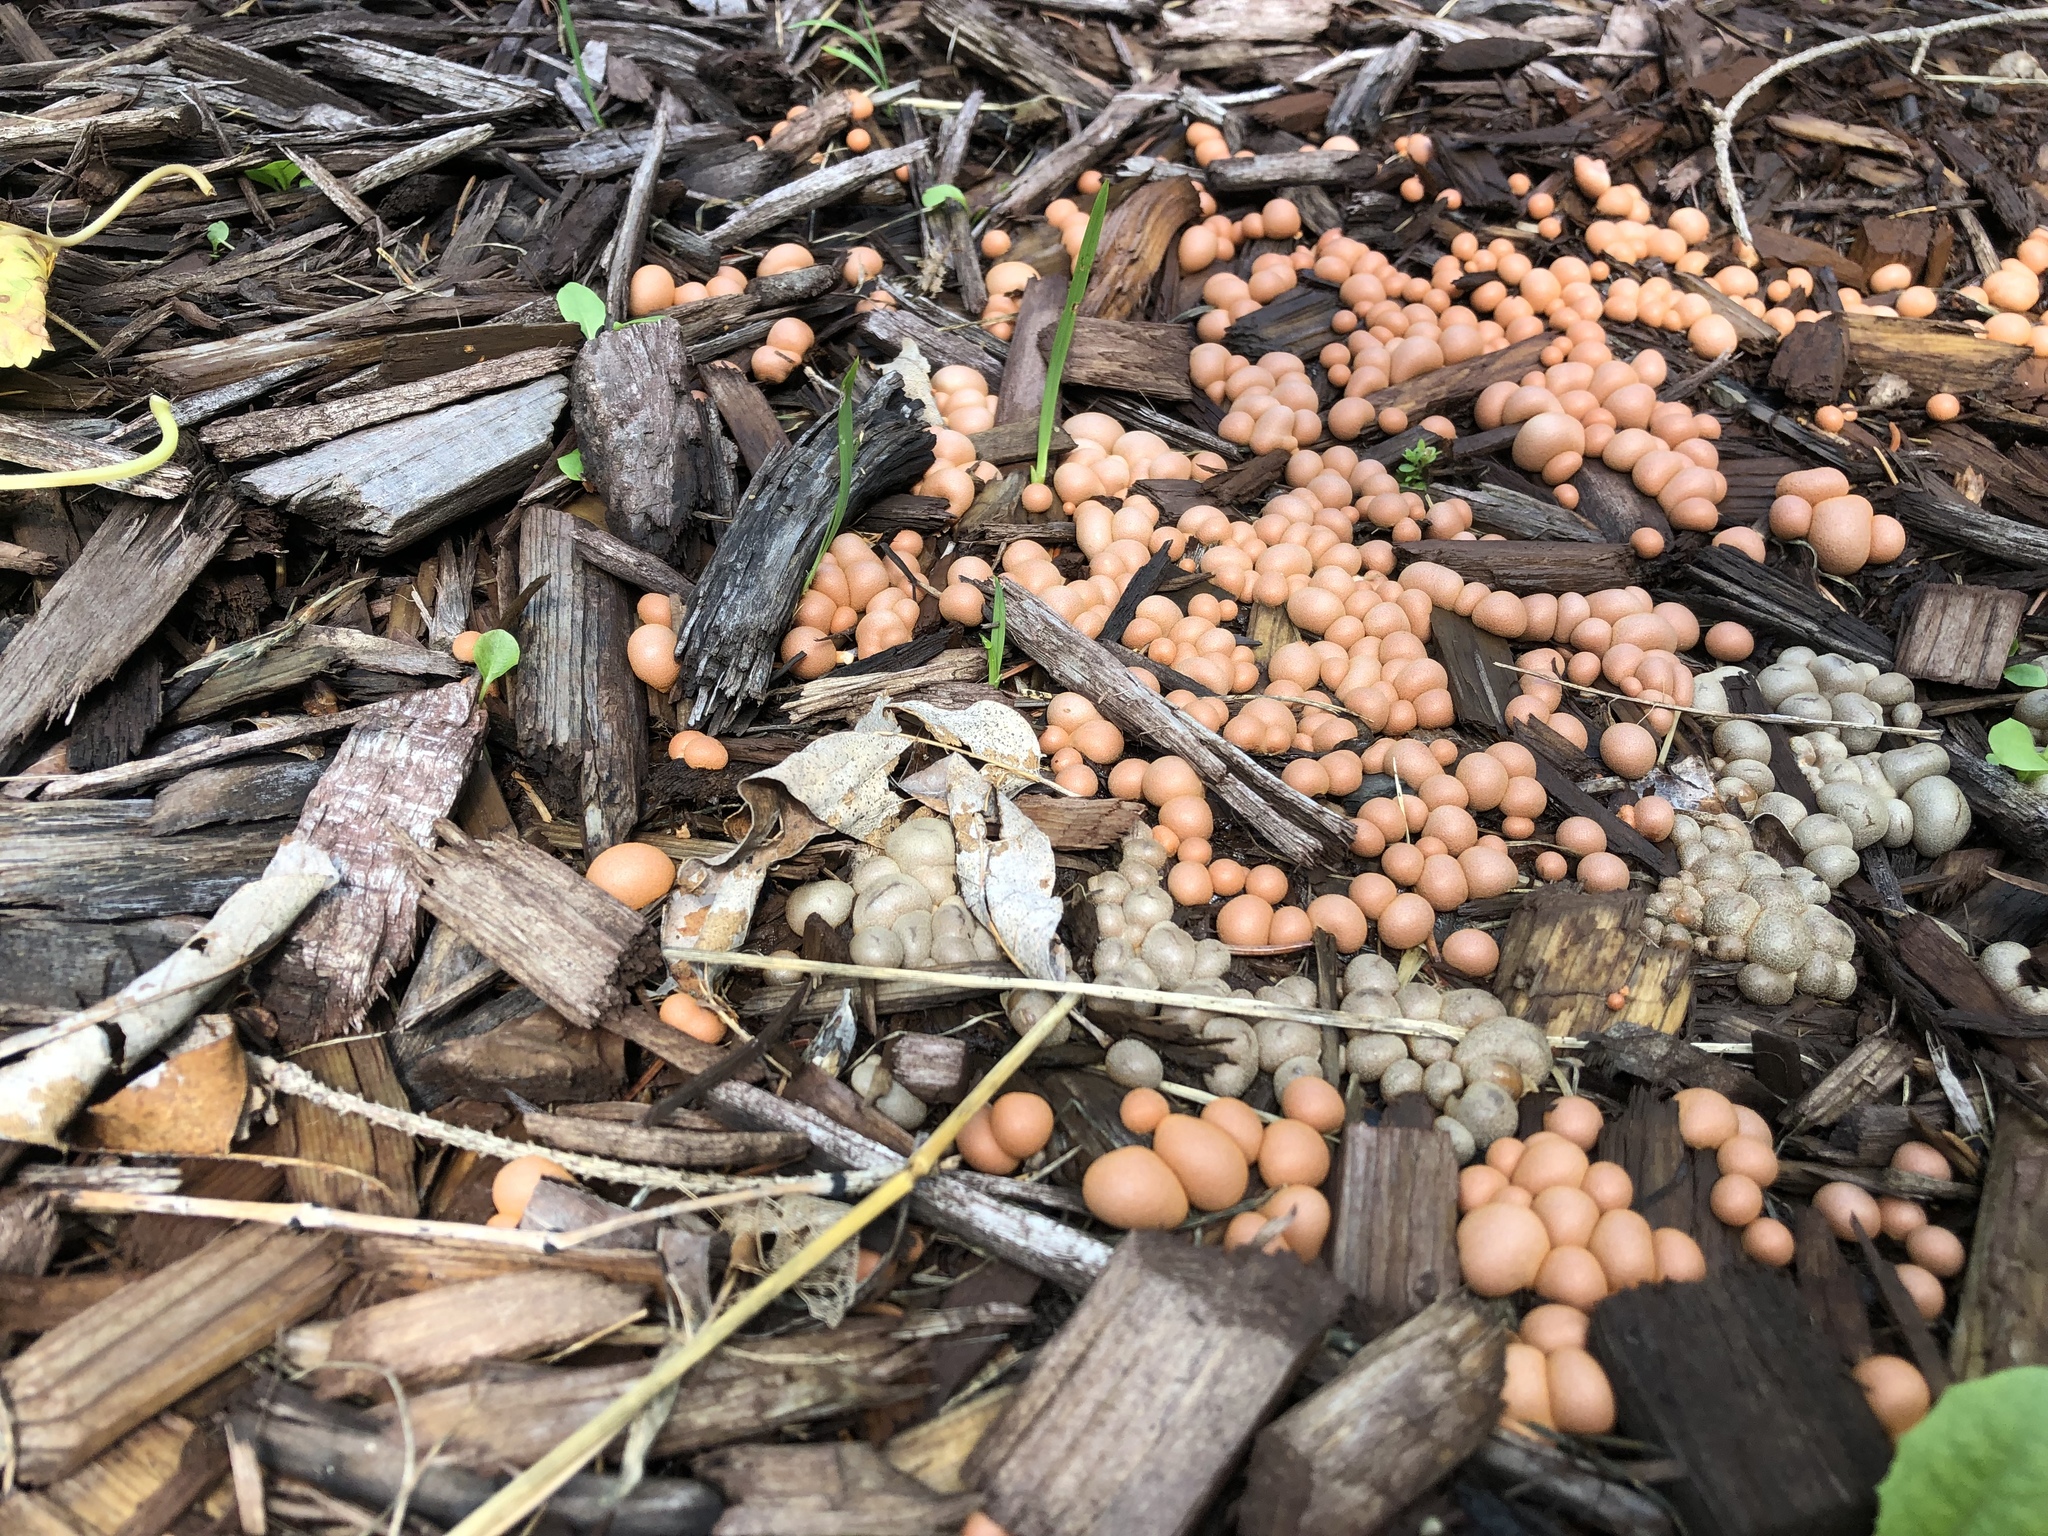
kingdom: Protozoa
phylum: Mycetozoa
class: Myxomycetes
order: Cribrariales
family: Tubiferaceae
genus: Lycogala
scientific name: Lycogala epidendrum
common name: Wolf's milk
